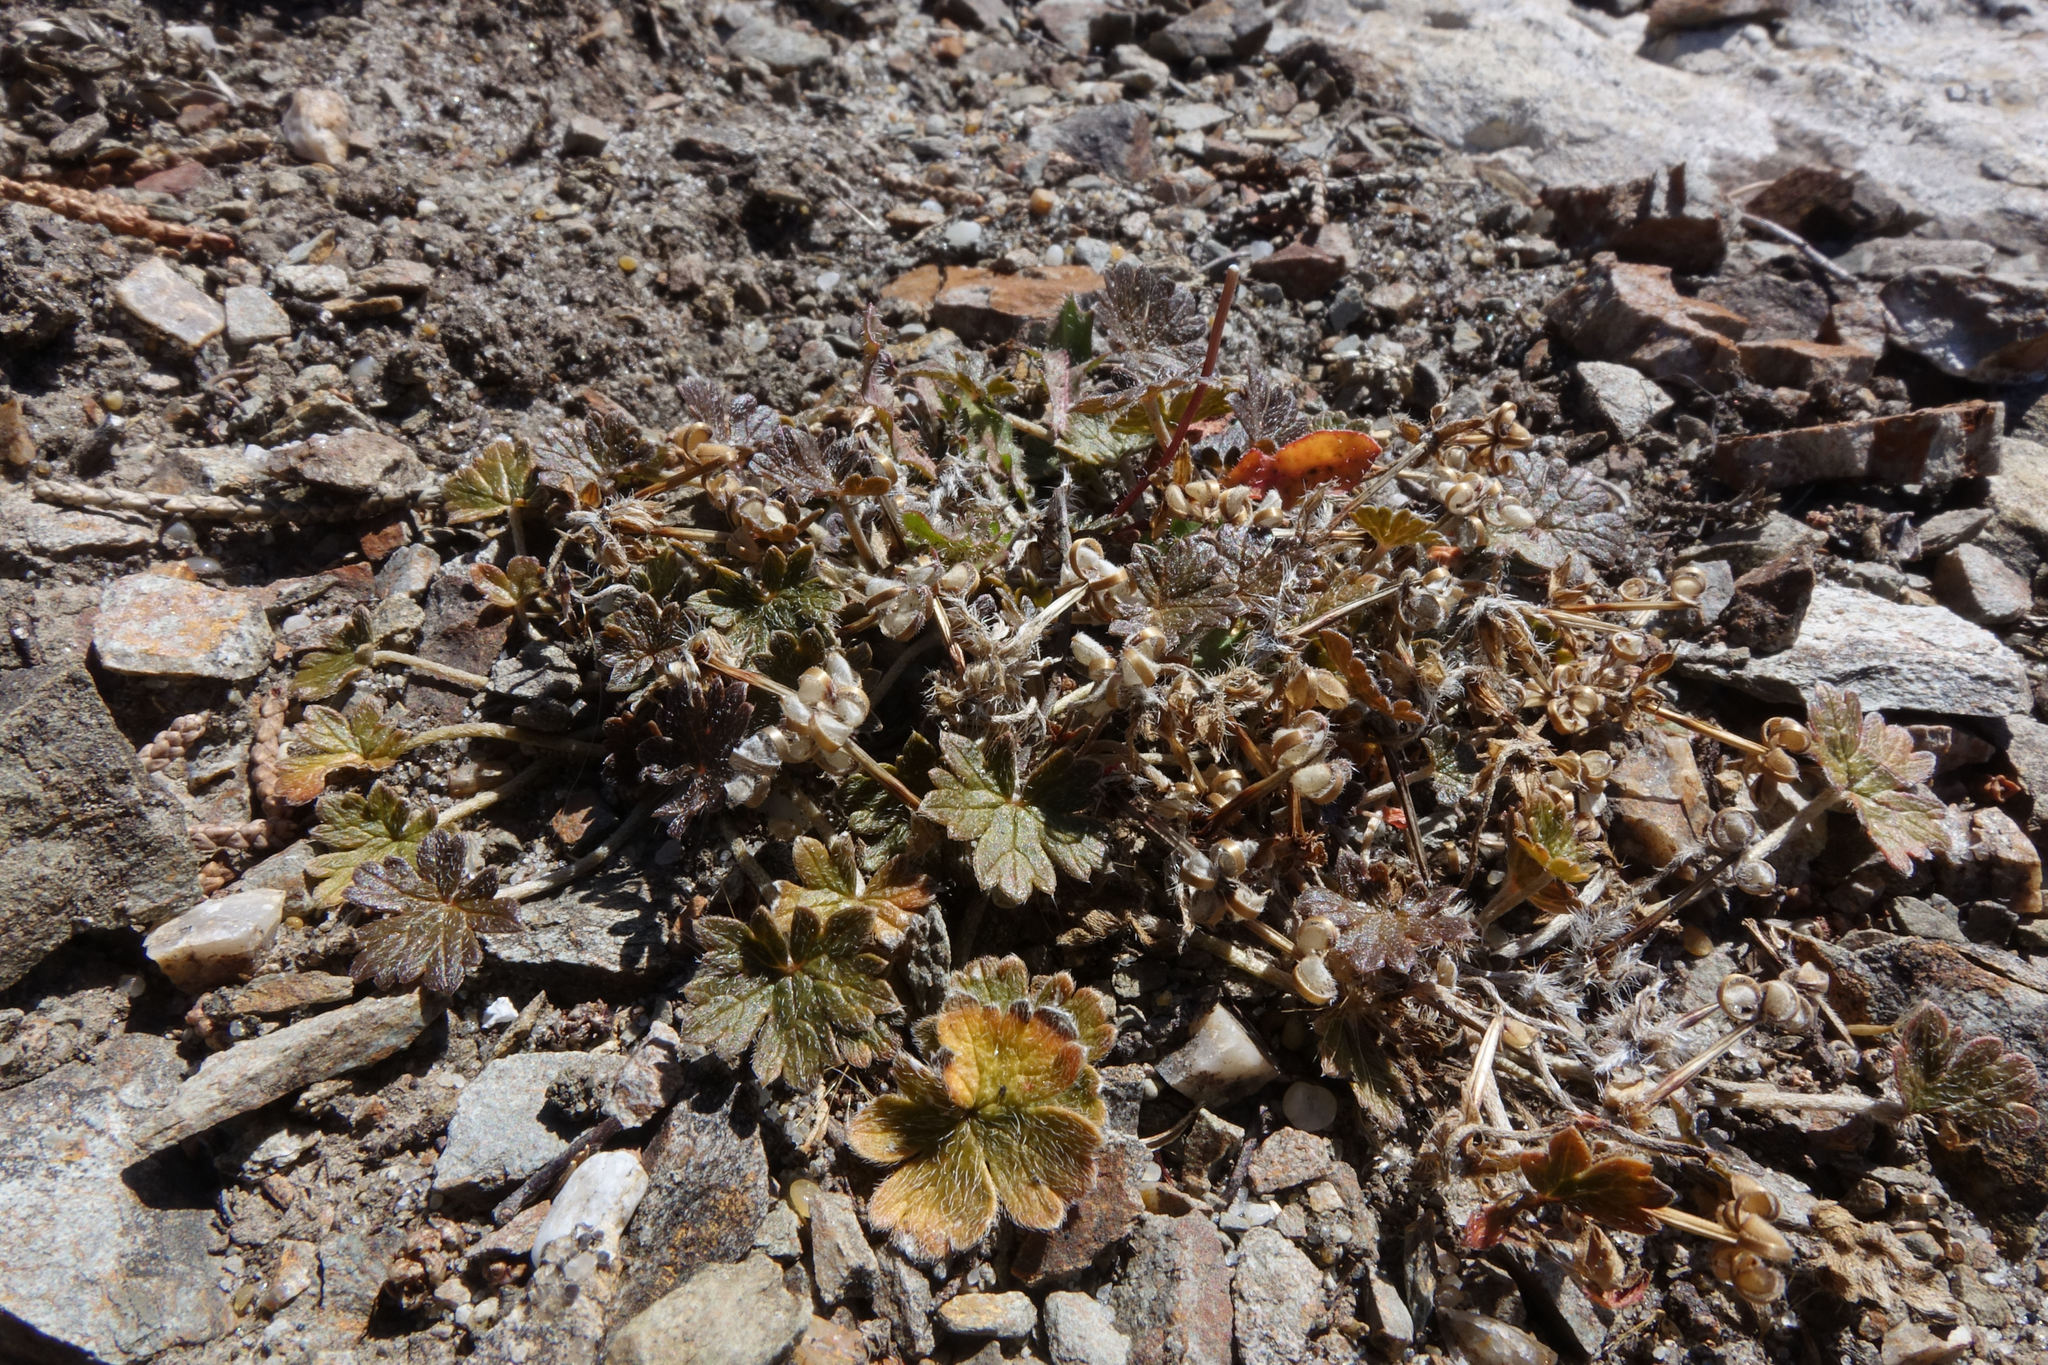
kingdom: Plantae
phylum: Tracheophyta
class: Magnoliopsida
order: Geraniales
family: Geraniaceae
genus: Geranium
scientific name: Geranium brevicaule
